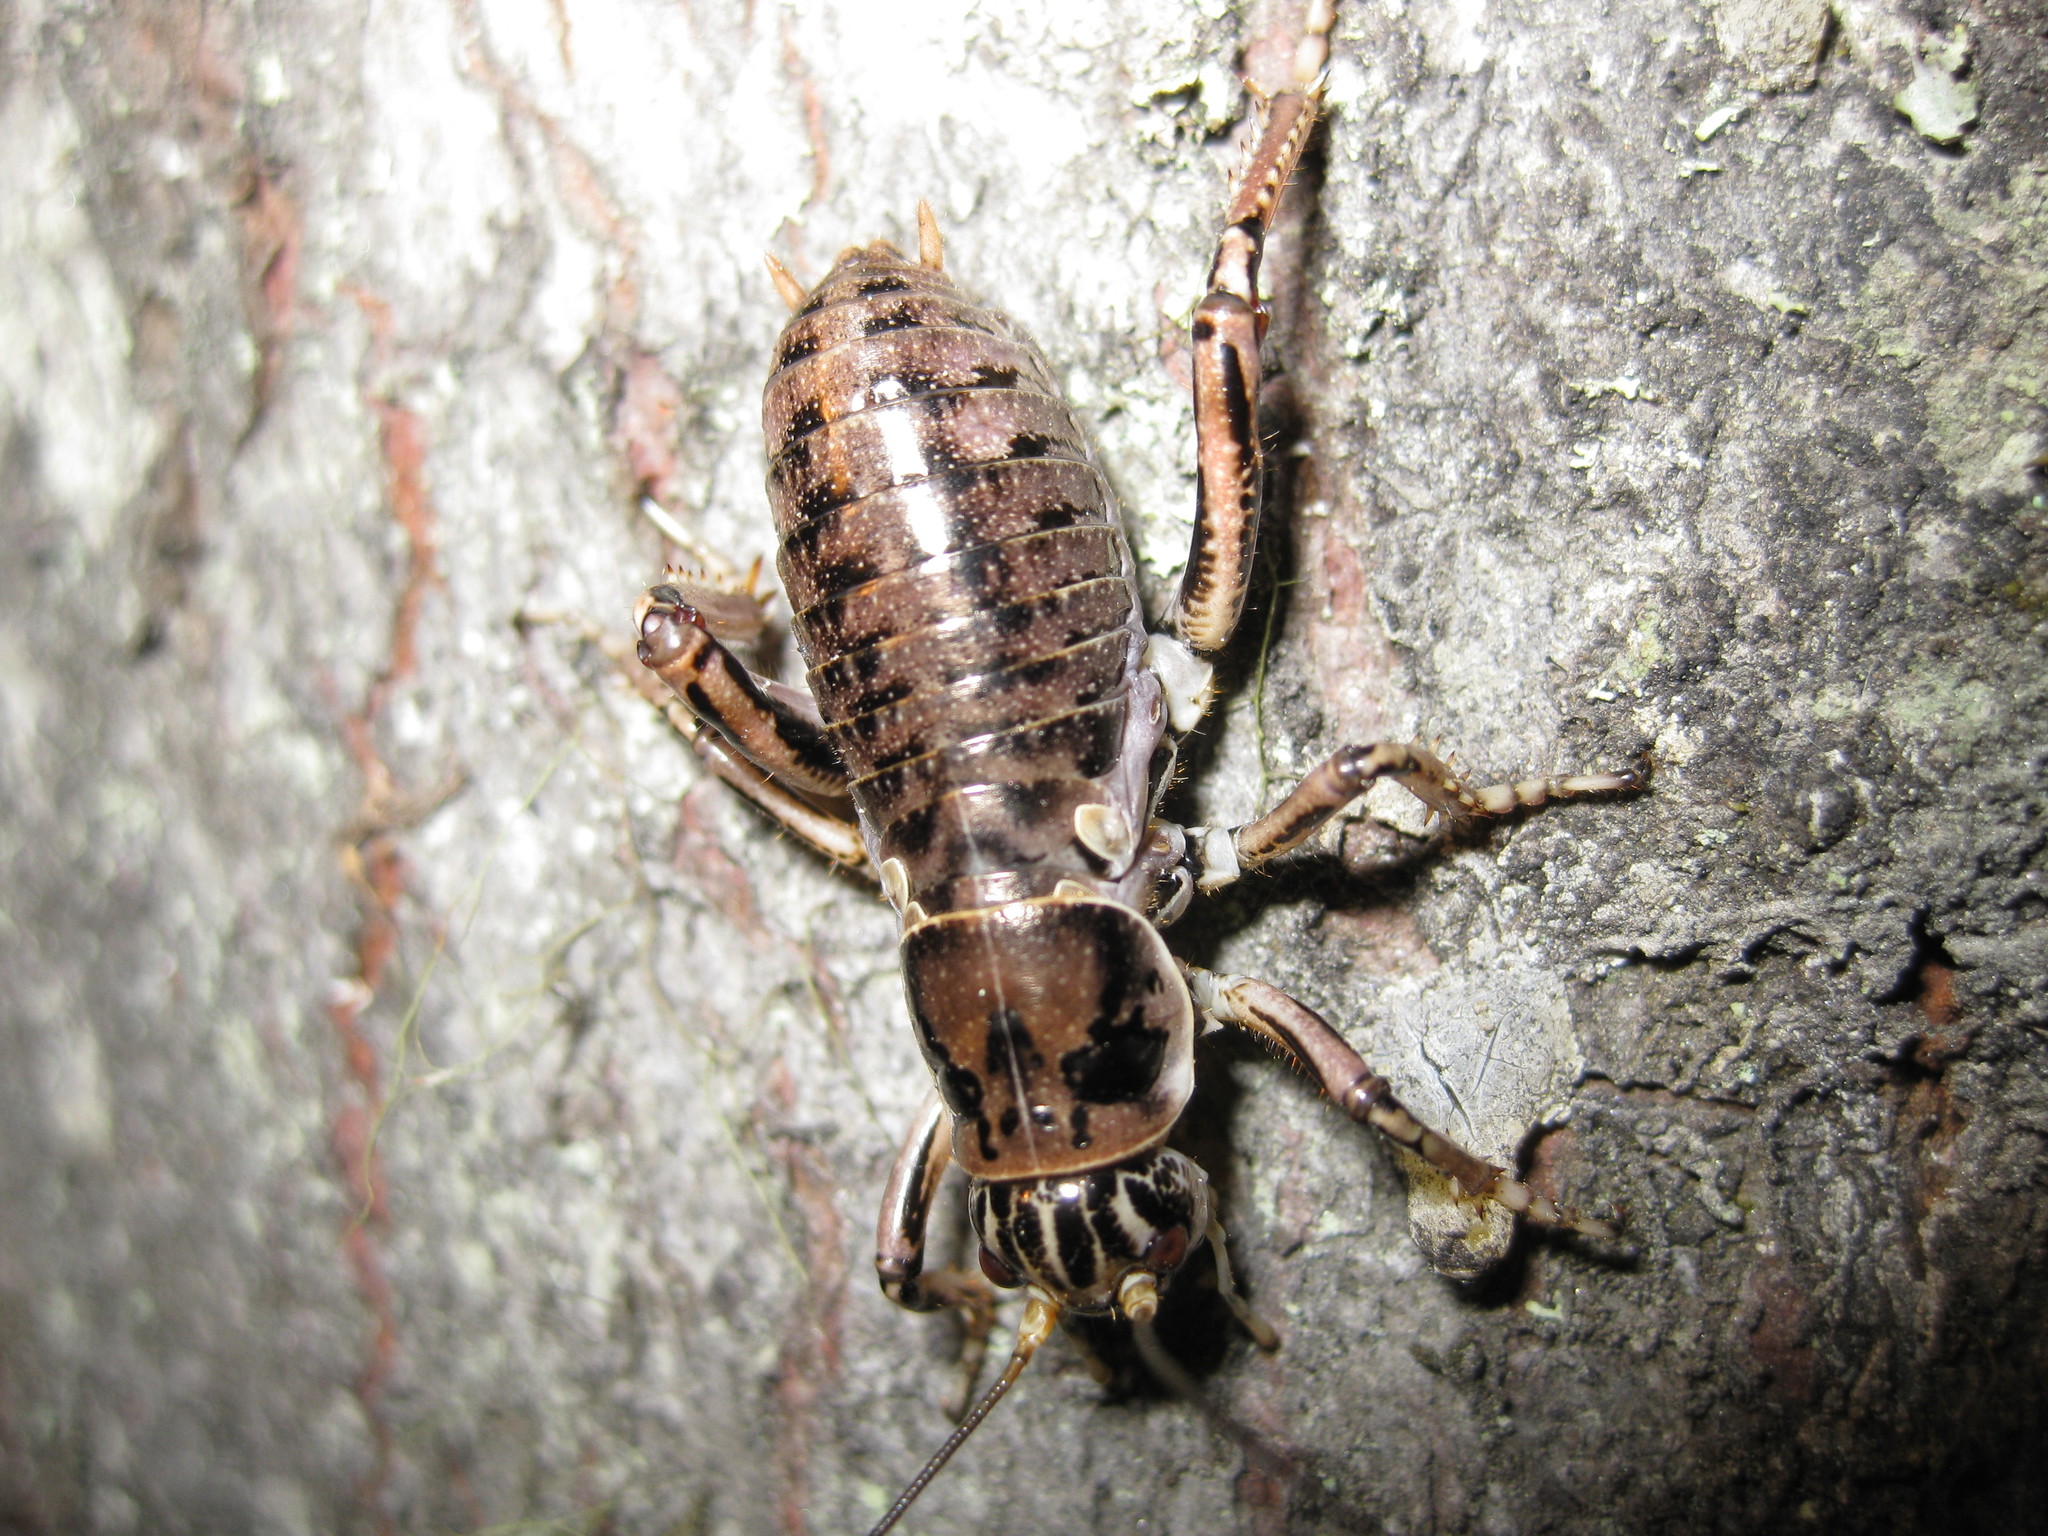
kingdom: Animalia
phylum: Arthropoda
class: Insecta
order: Orthoptera
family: Prophalangopsidae
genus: Cyphoderris
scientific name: Cyphoderris buckelli
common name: Buckell’s grig
